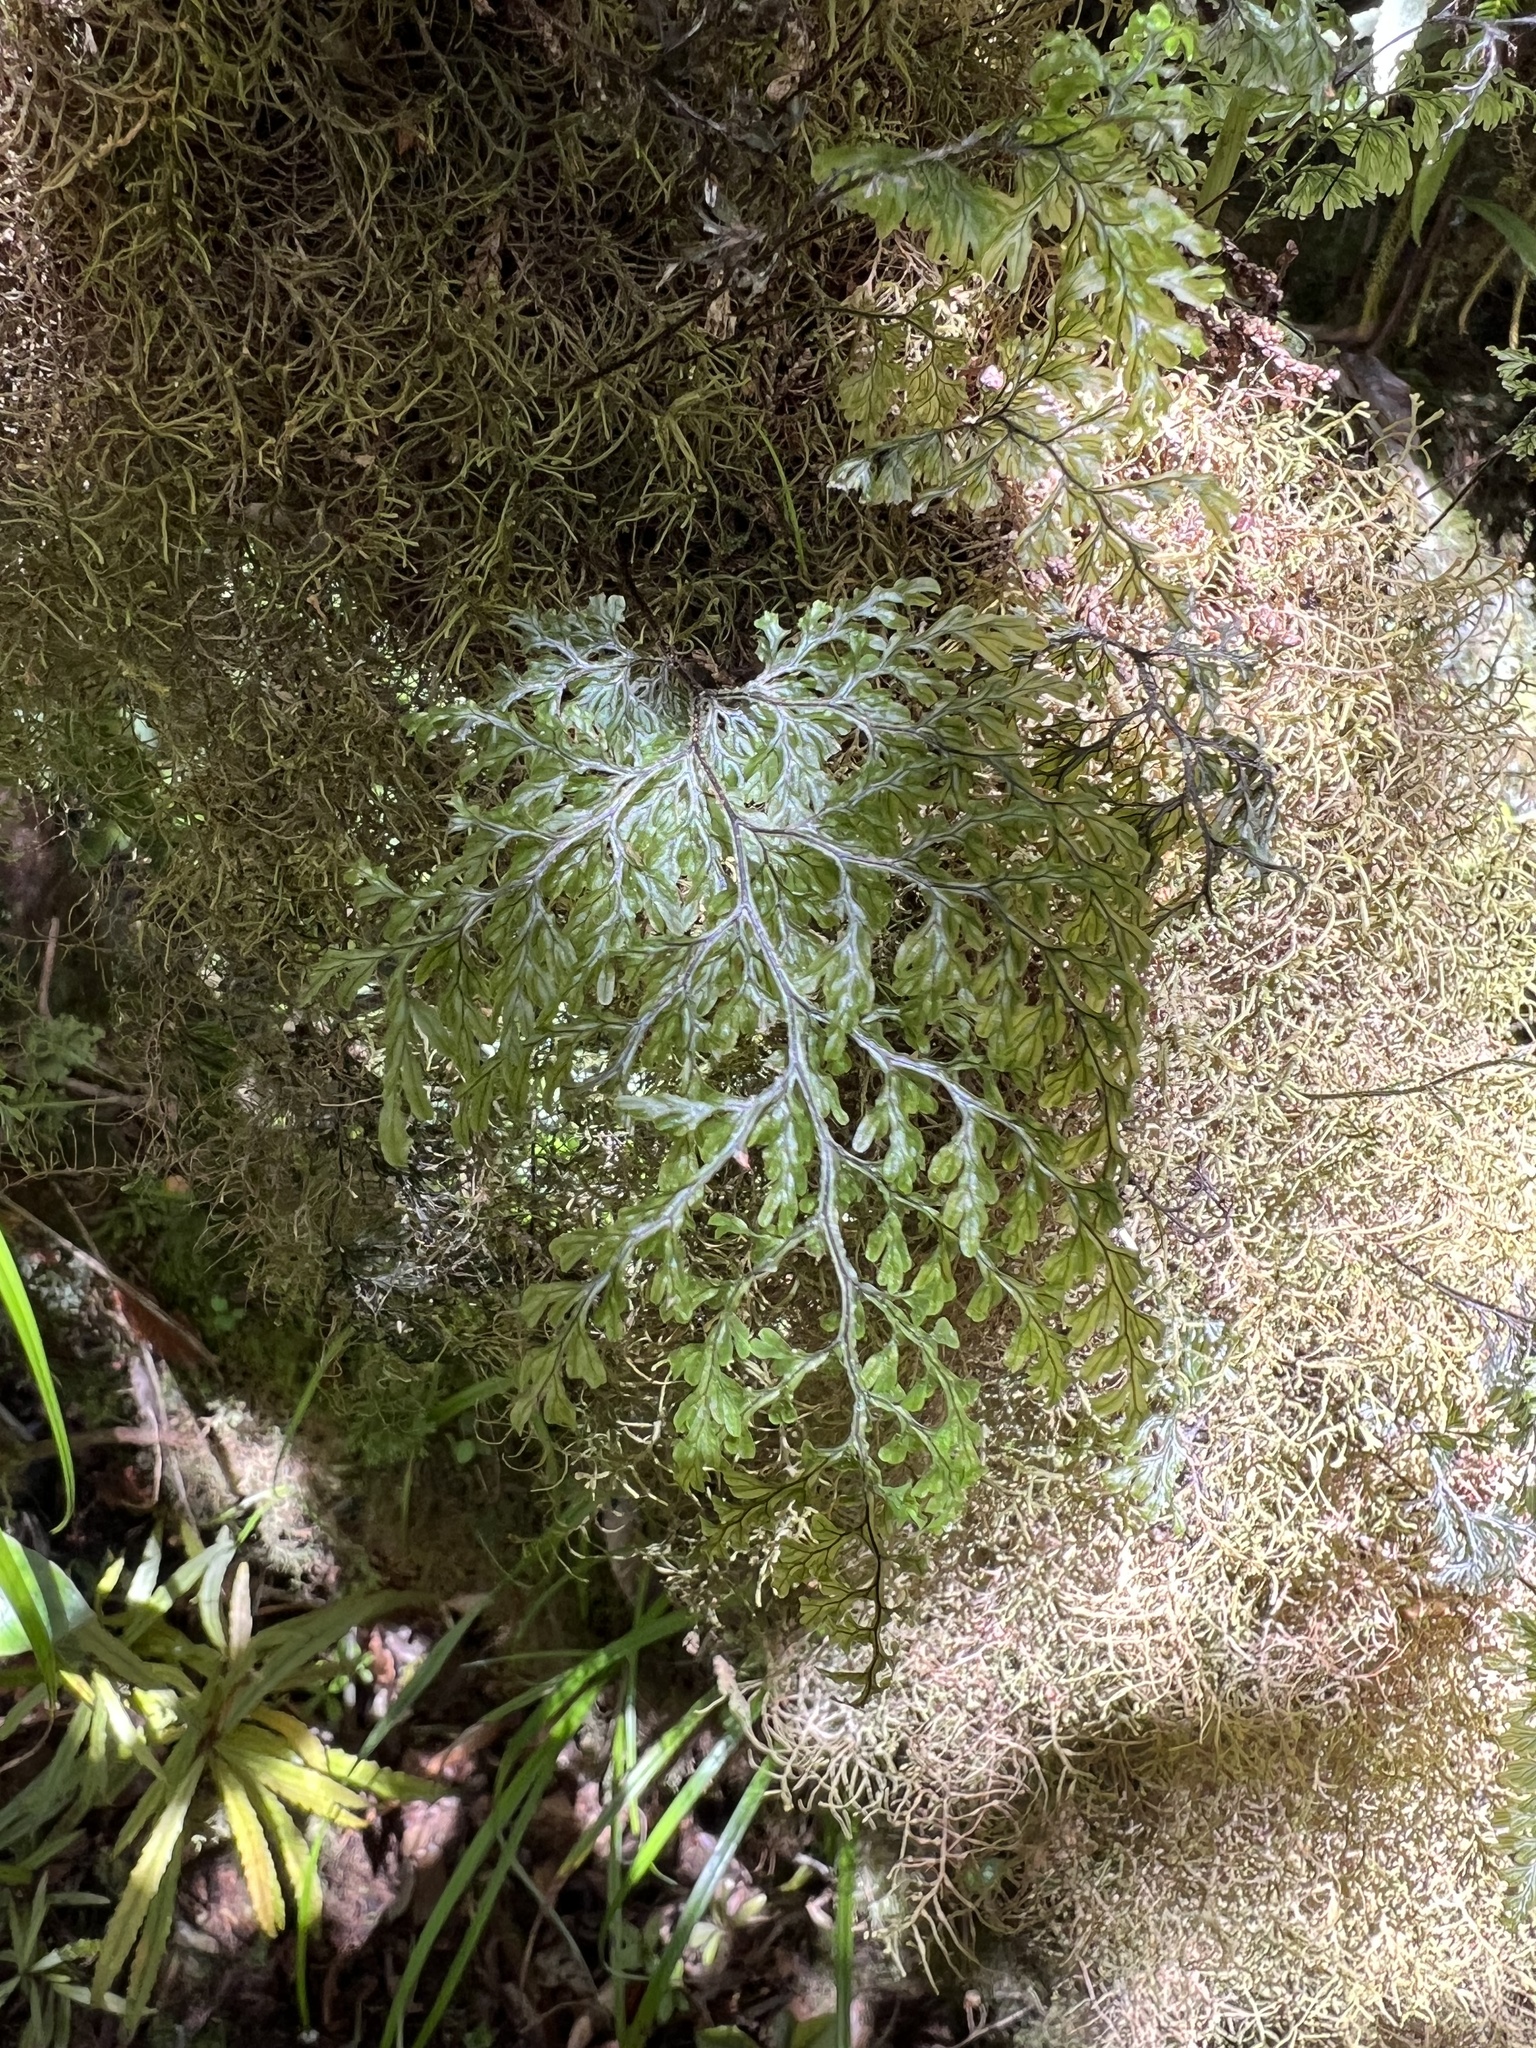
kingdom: Plantae
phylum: Tracheophyta
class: Polypodiopsida
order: Hymenophyllales
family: Hymenophyllaceae
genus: Hymenophyllum
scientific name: Hymenophyllum villosum
